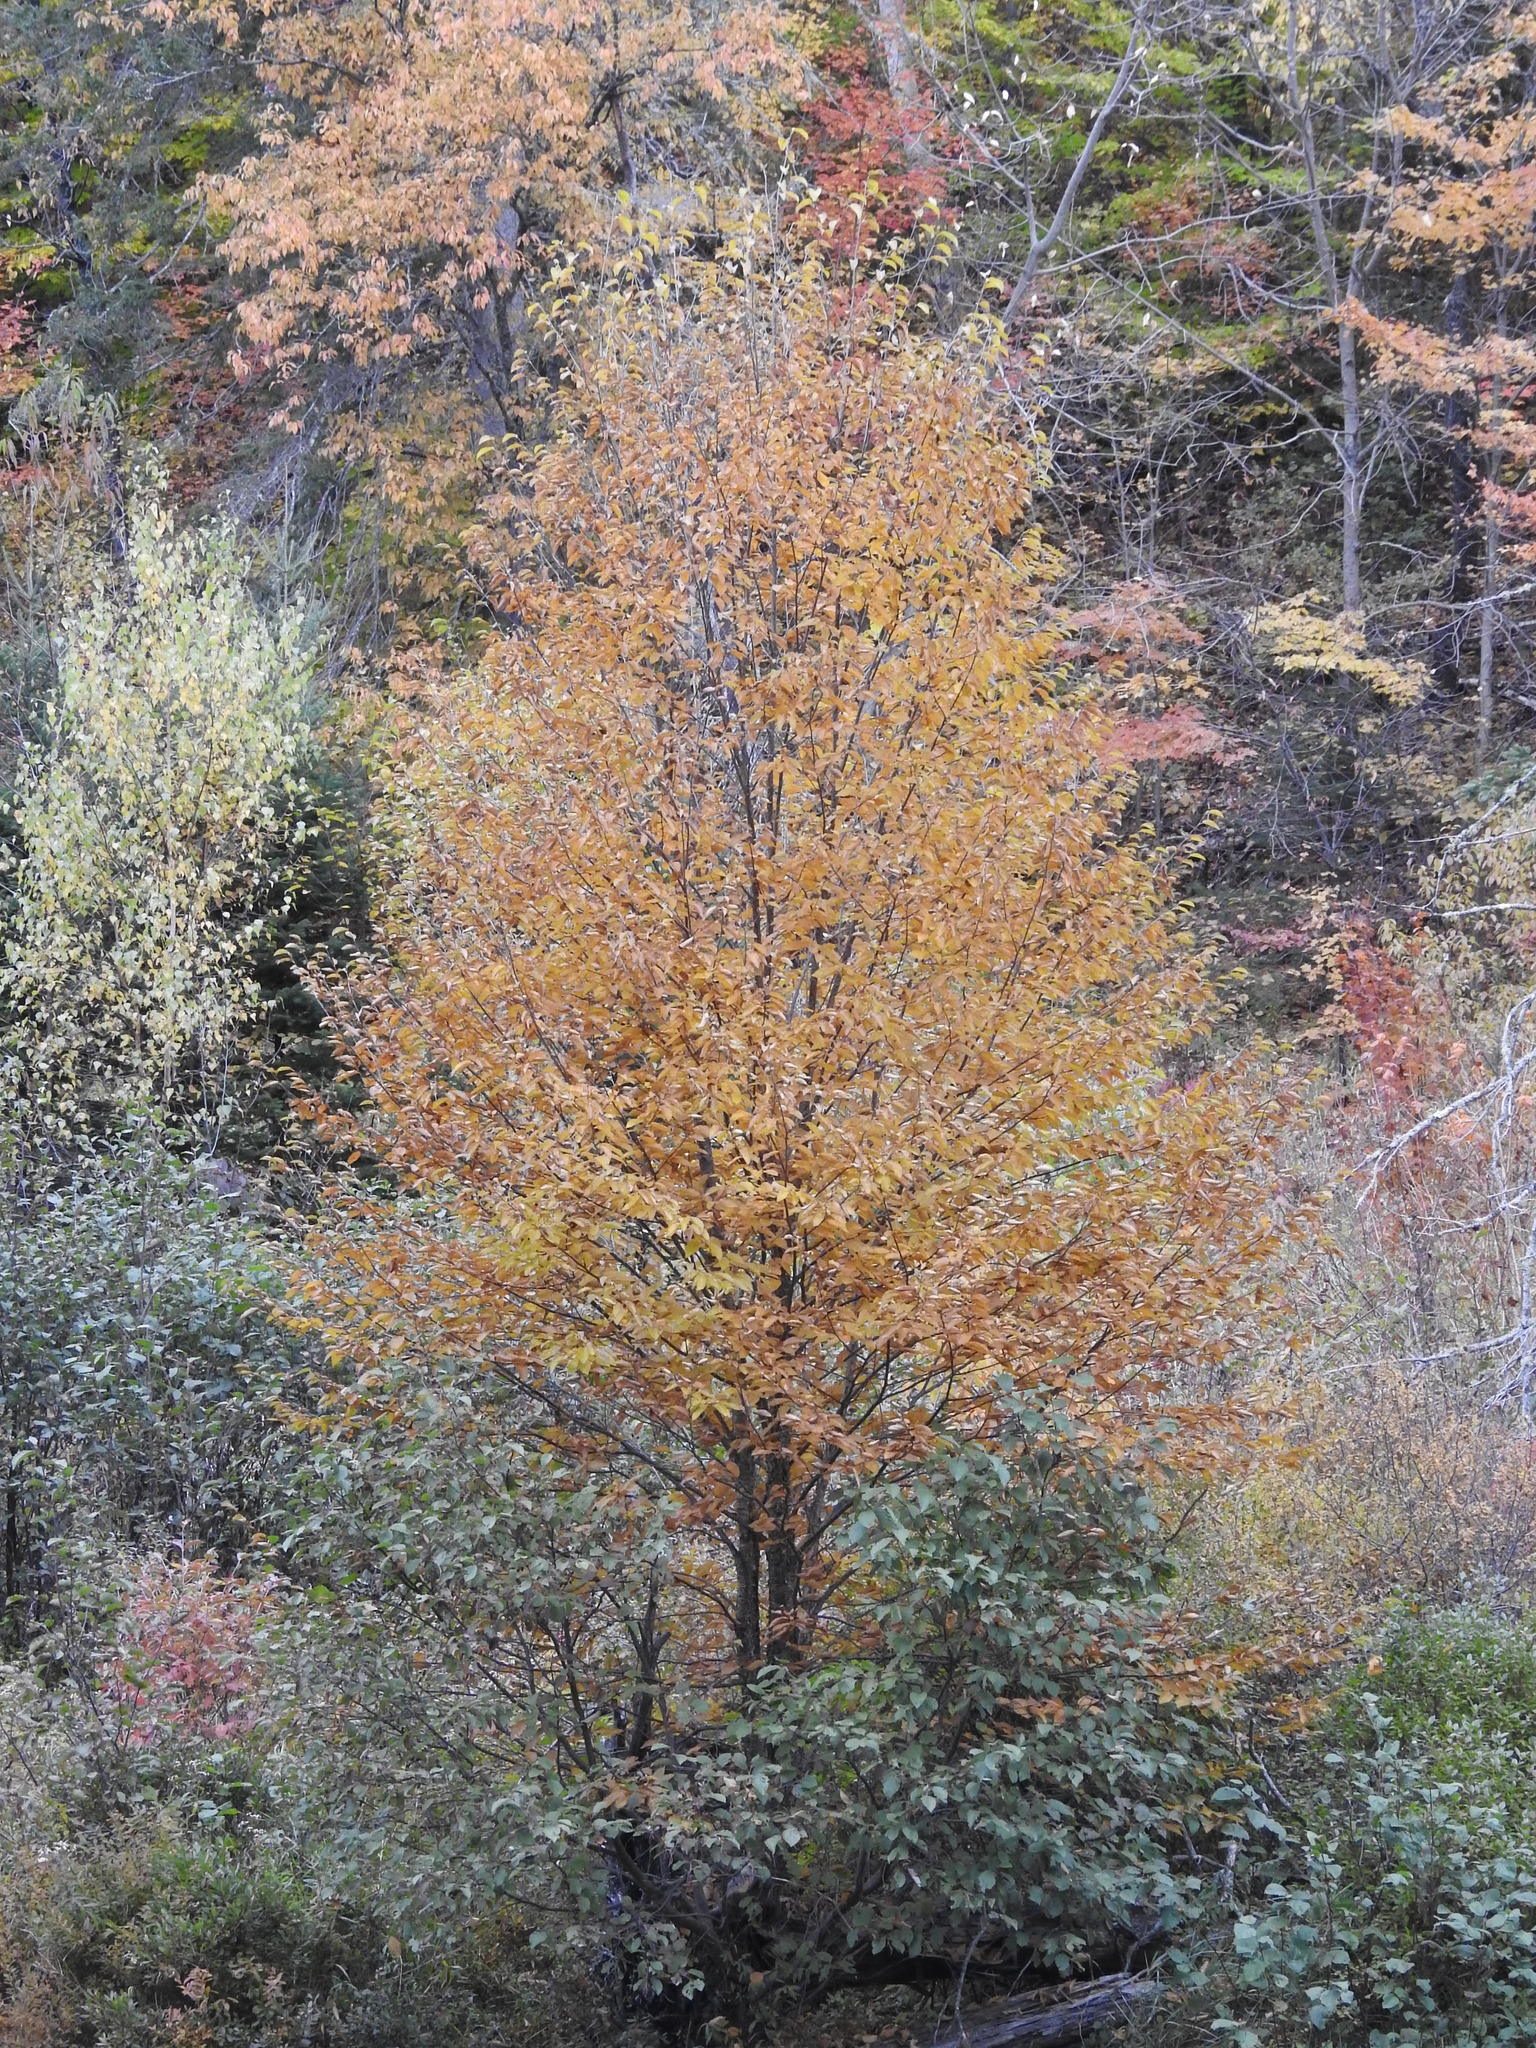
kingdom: Plantae
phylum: Tracheophyta
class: Magnoliopsida
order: Fagales
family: Betulaceae
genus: Betula
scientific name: Betula alleghaniensis
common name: Yellow birch
